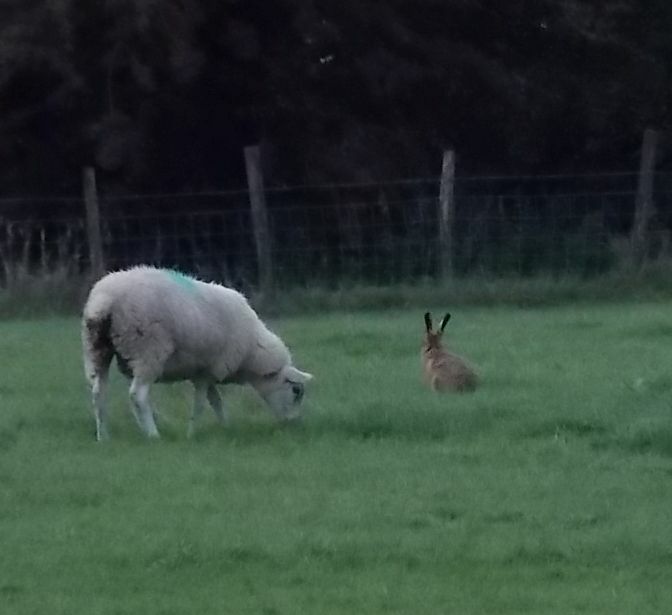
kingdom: Animalia
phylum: Chordata
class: Mammalia
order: Lagomorpha
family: Leporidae
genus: Lepus
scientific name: Lepus europaeus
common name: European hare
